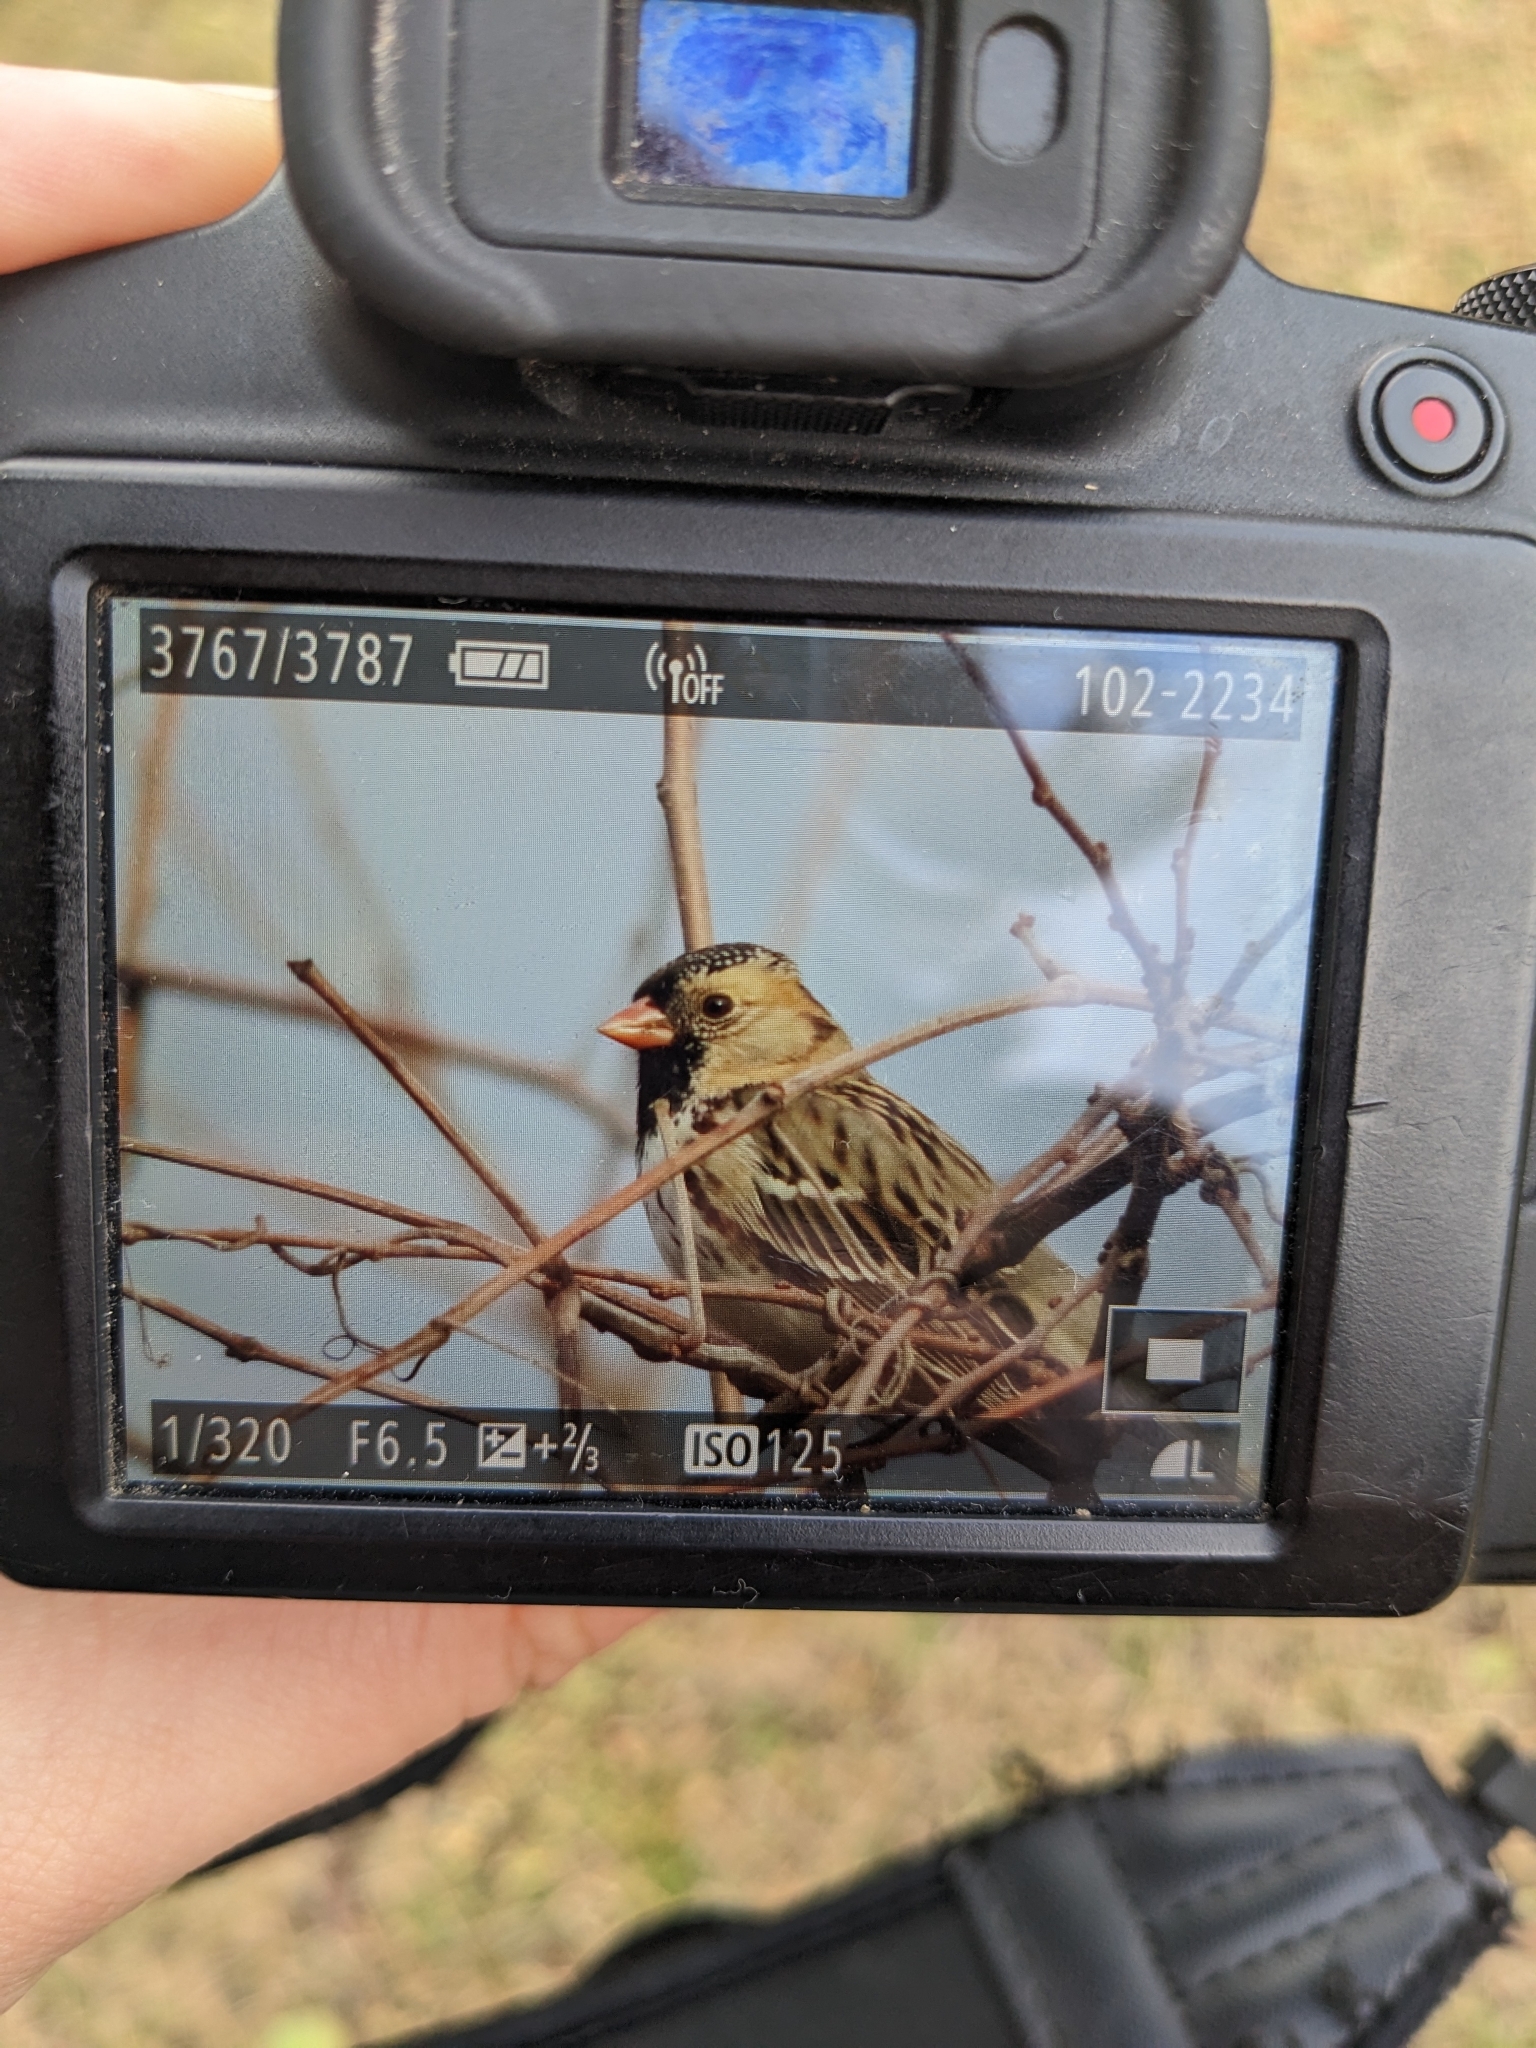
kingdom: Animalia
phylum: Chordata
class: Aves
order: Passeriformes
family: Passerellidae
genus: Zonotrichia
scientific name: Zonotrichia querula
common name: Harris's sparrow
